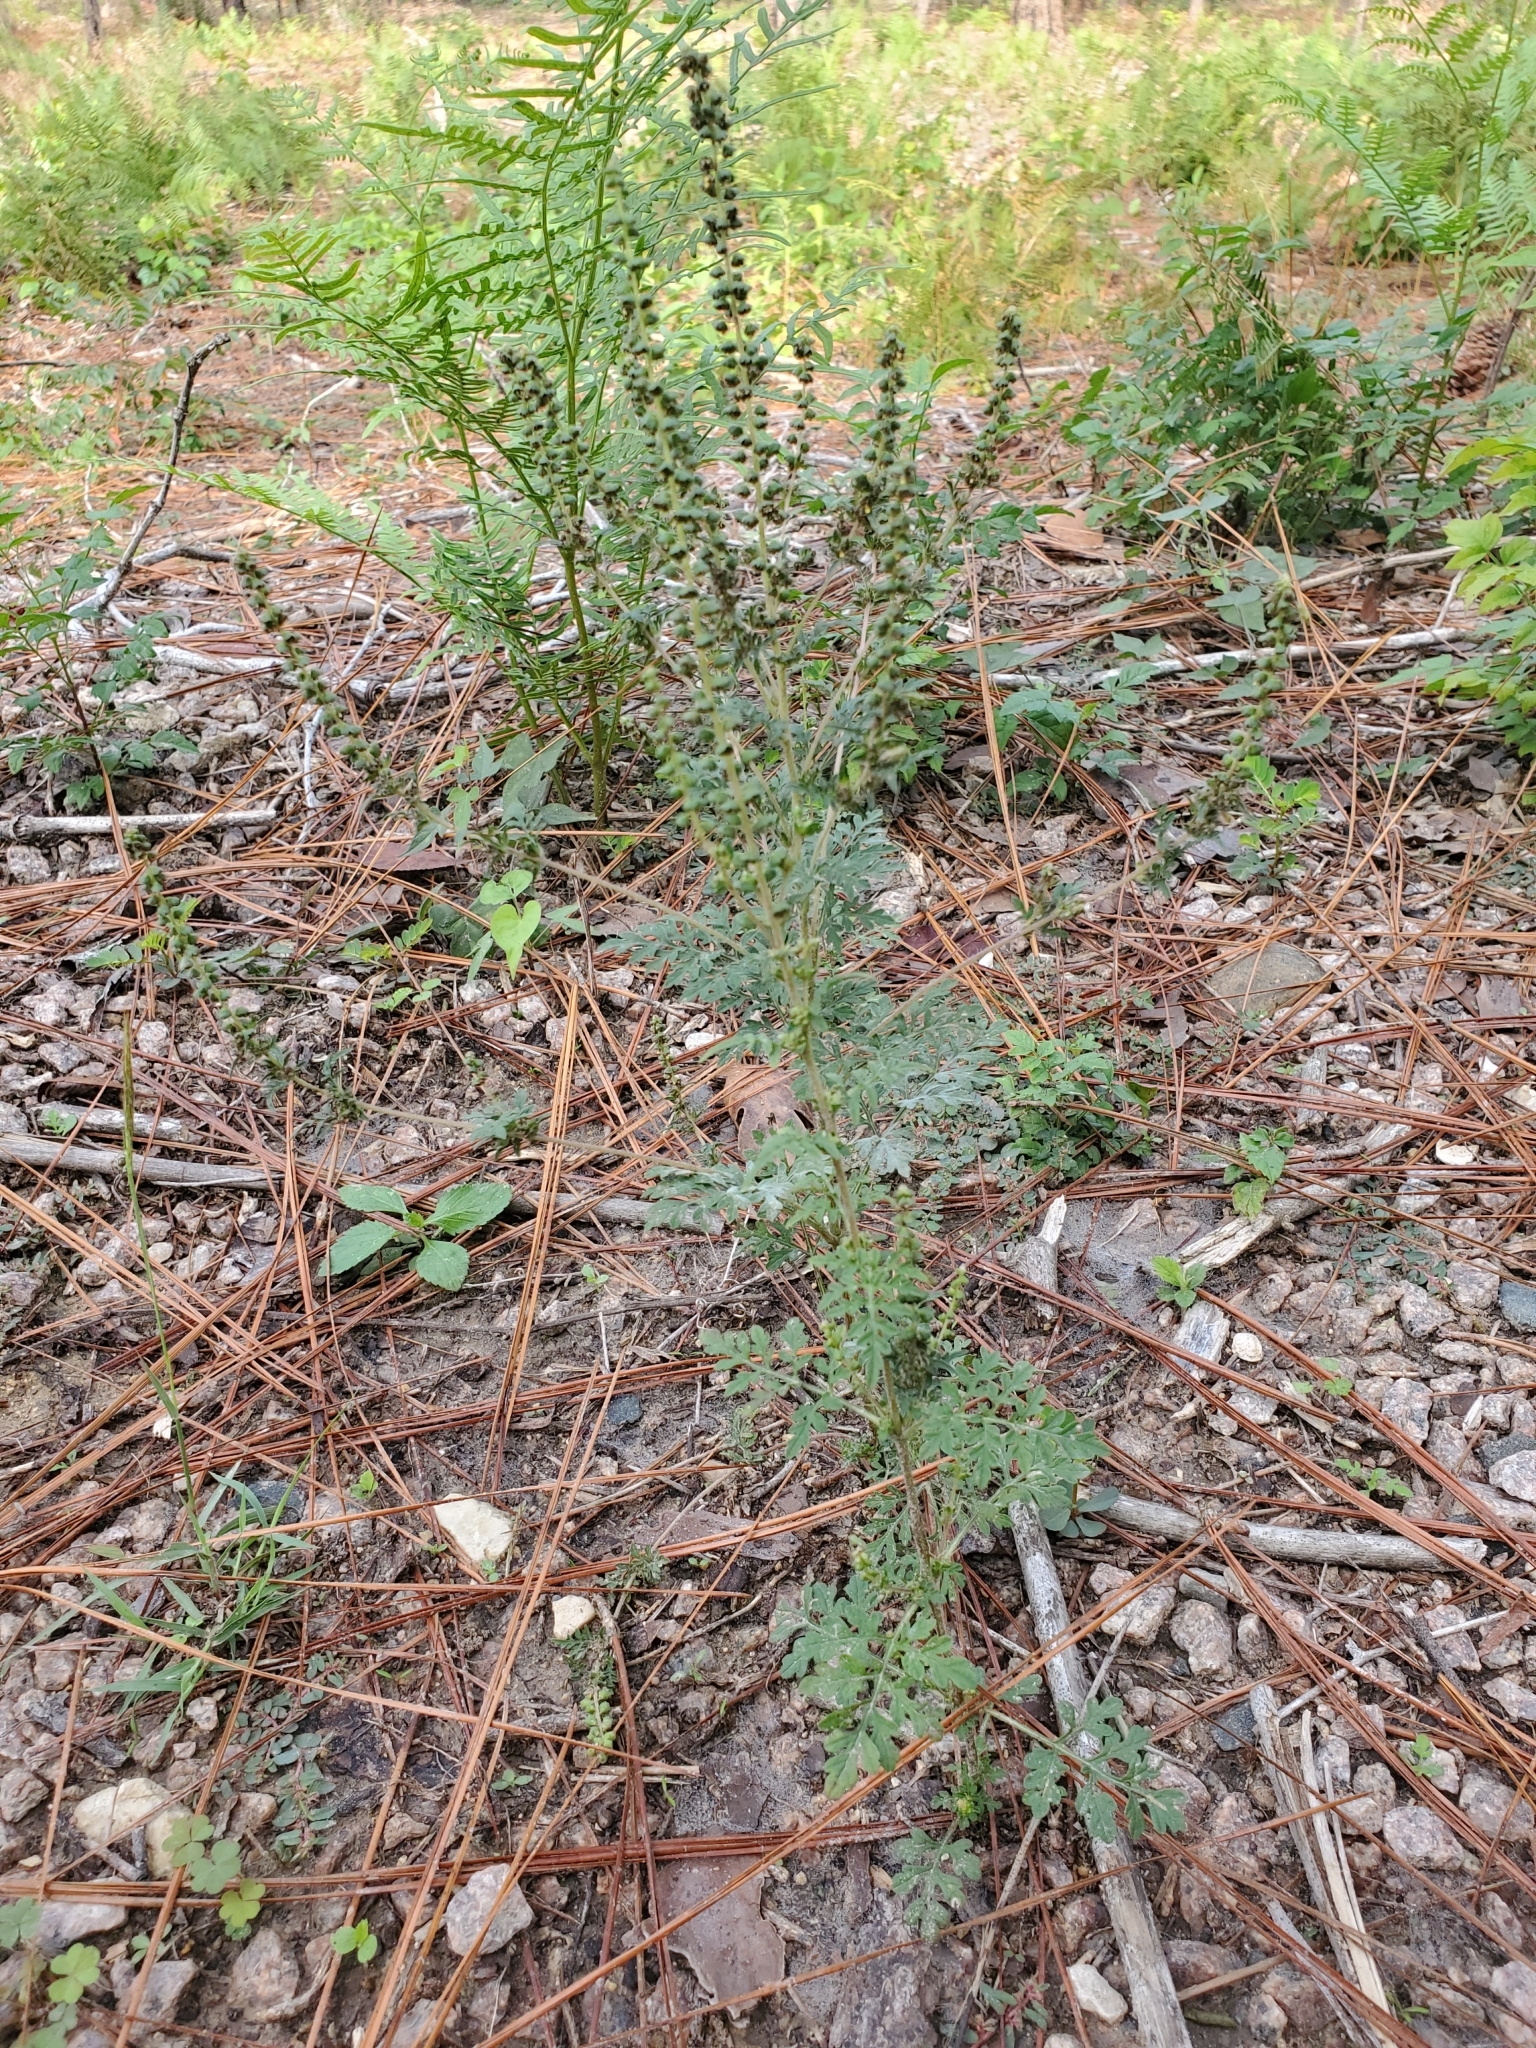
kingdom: Plantae
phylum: Tracheophyta
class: Magnoliopsida
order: Asterales
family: Asteraceae
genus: Ambrosia
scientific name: Ambrosia artemisiifolia
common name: Annual ragweed
